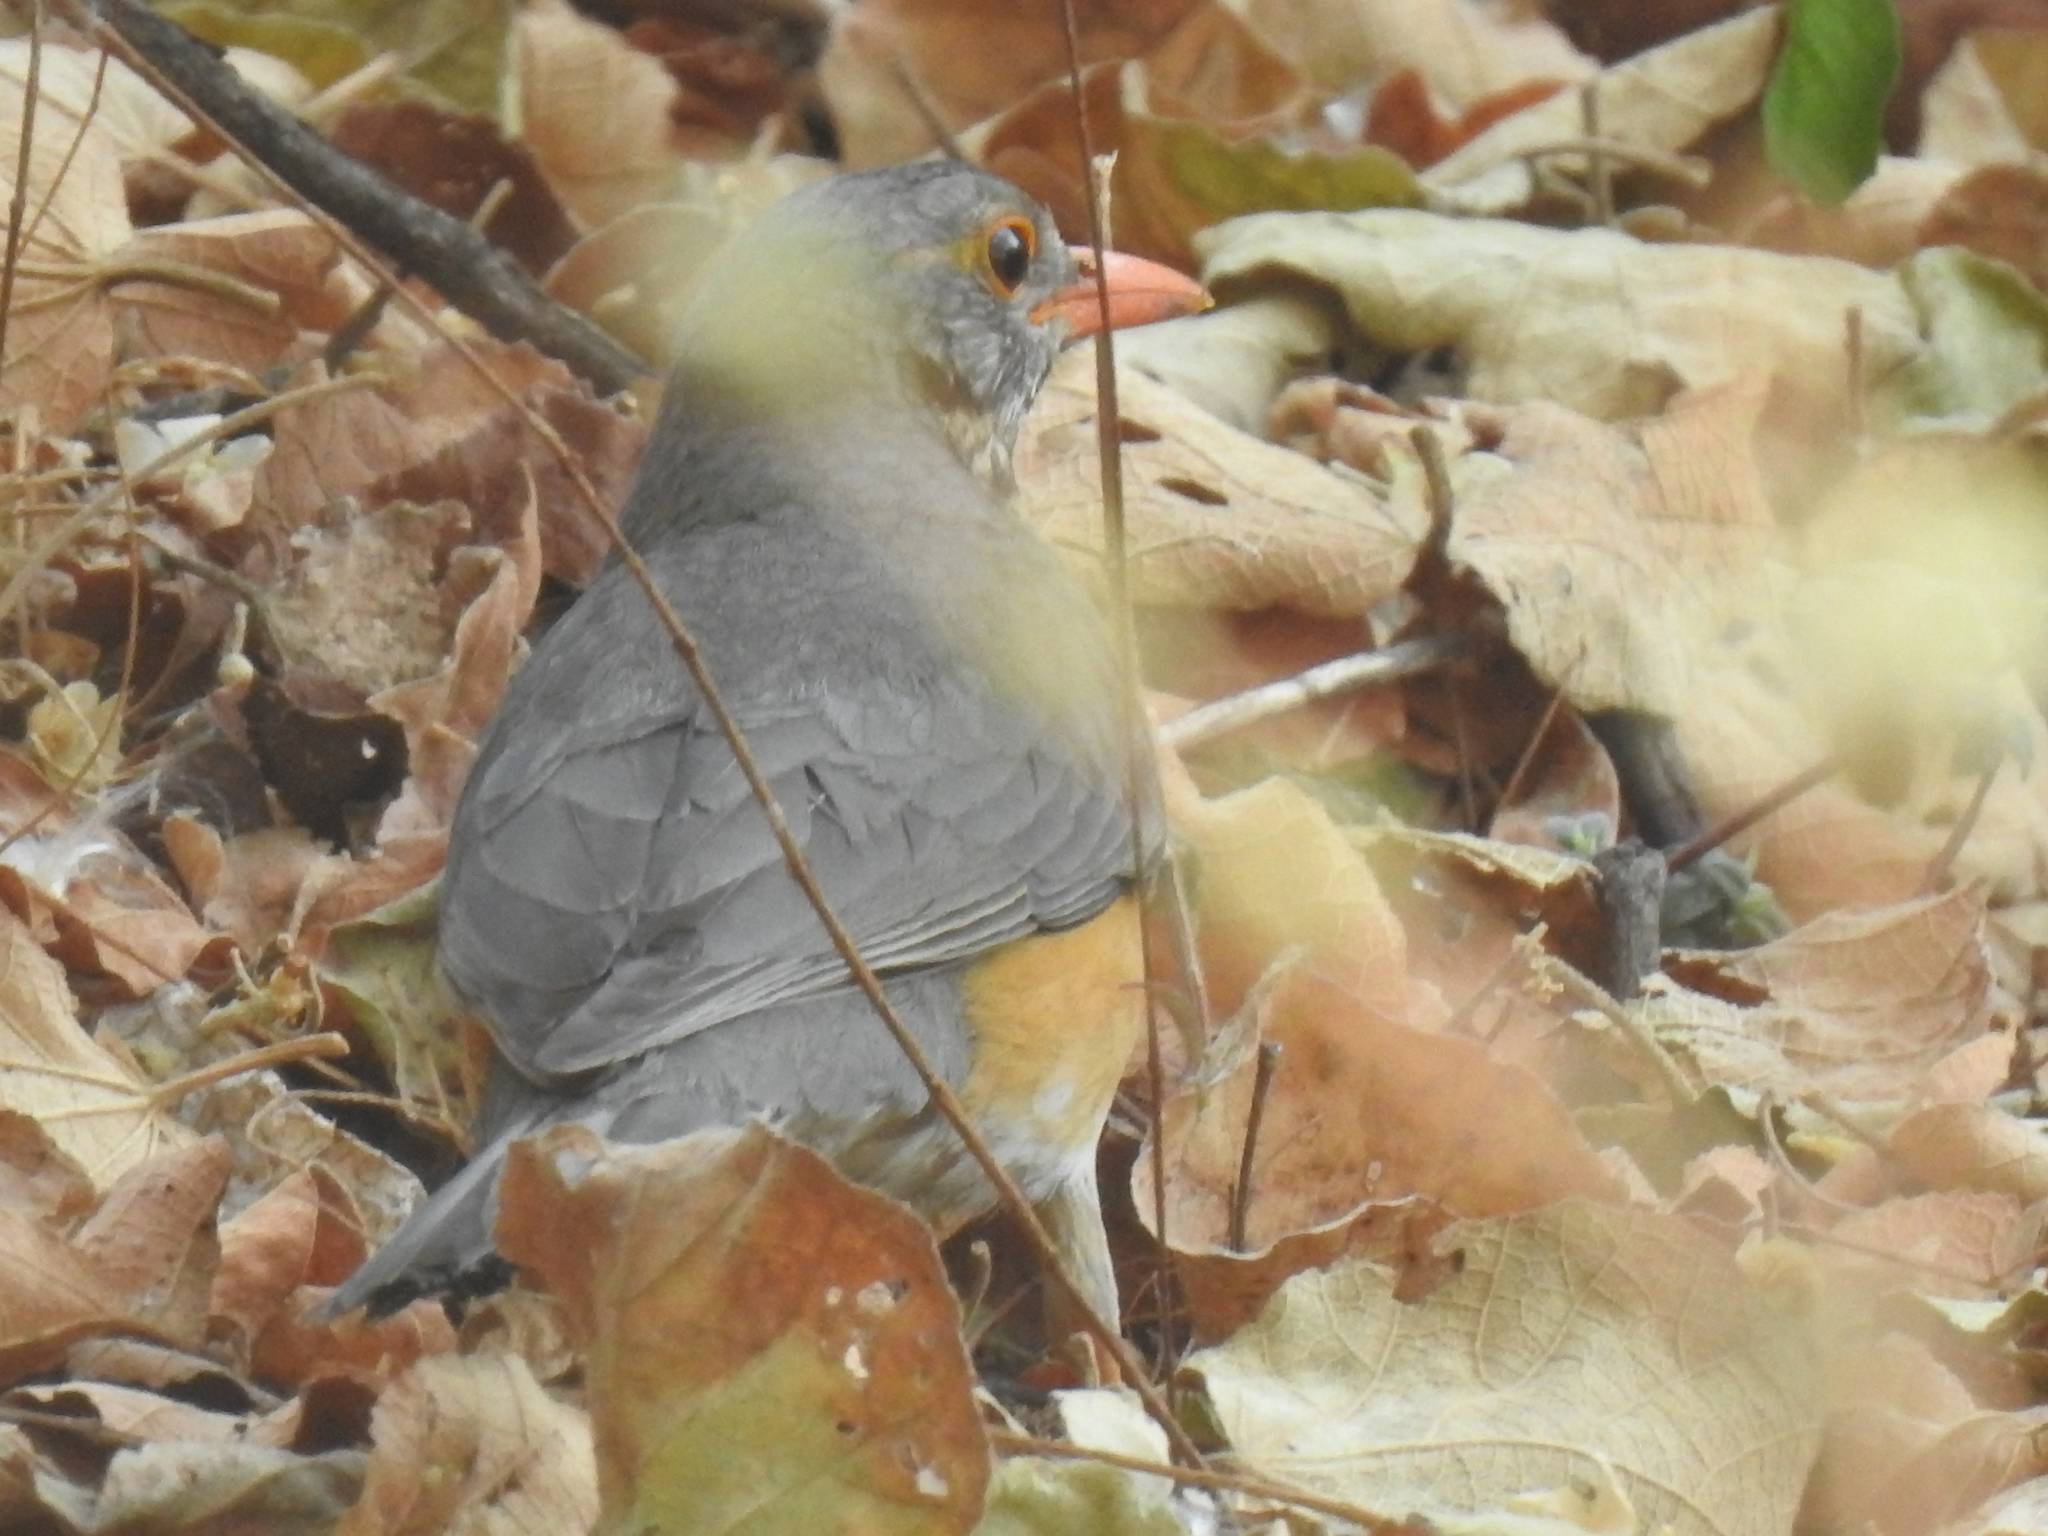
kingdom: Animalia
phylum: Chordata
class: Aves
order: Passeriformes
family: Turdidae
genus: Turdus
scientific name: Turdus libonyana
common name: Kurrichane thrush
